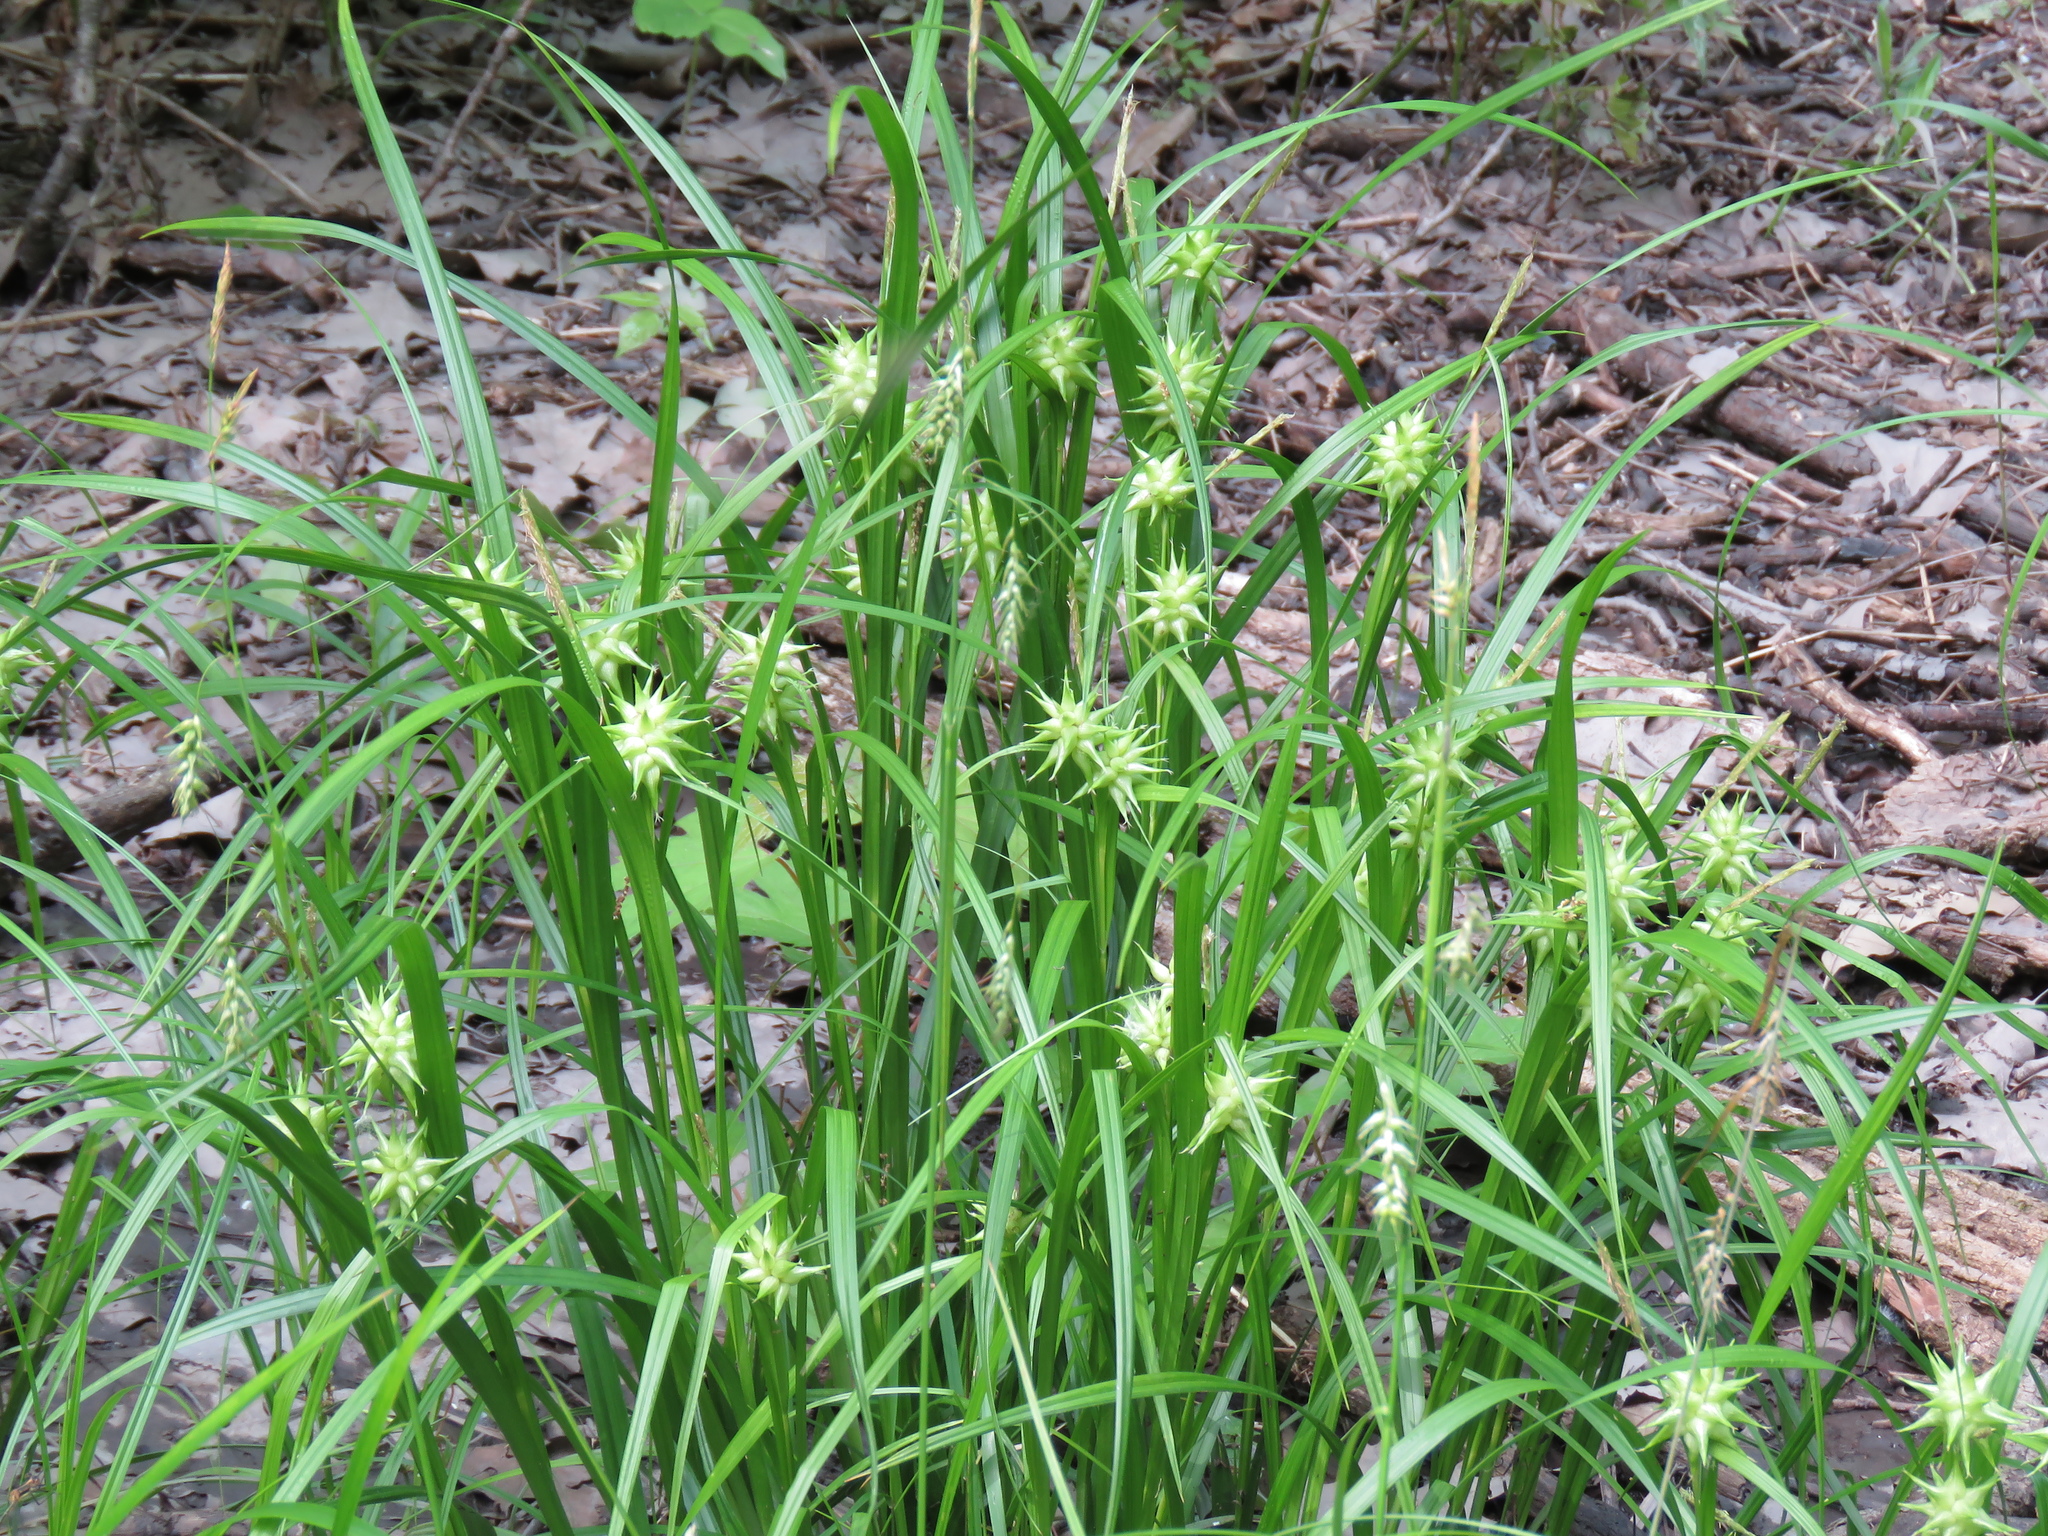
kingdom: Plantae
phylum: Tracheophyta
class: Liliopsida
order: Poales
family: Cyperaceae
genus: Carex
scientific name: Carex grayi
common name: Asa gray's sedge
